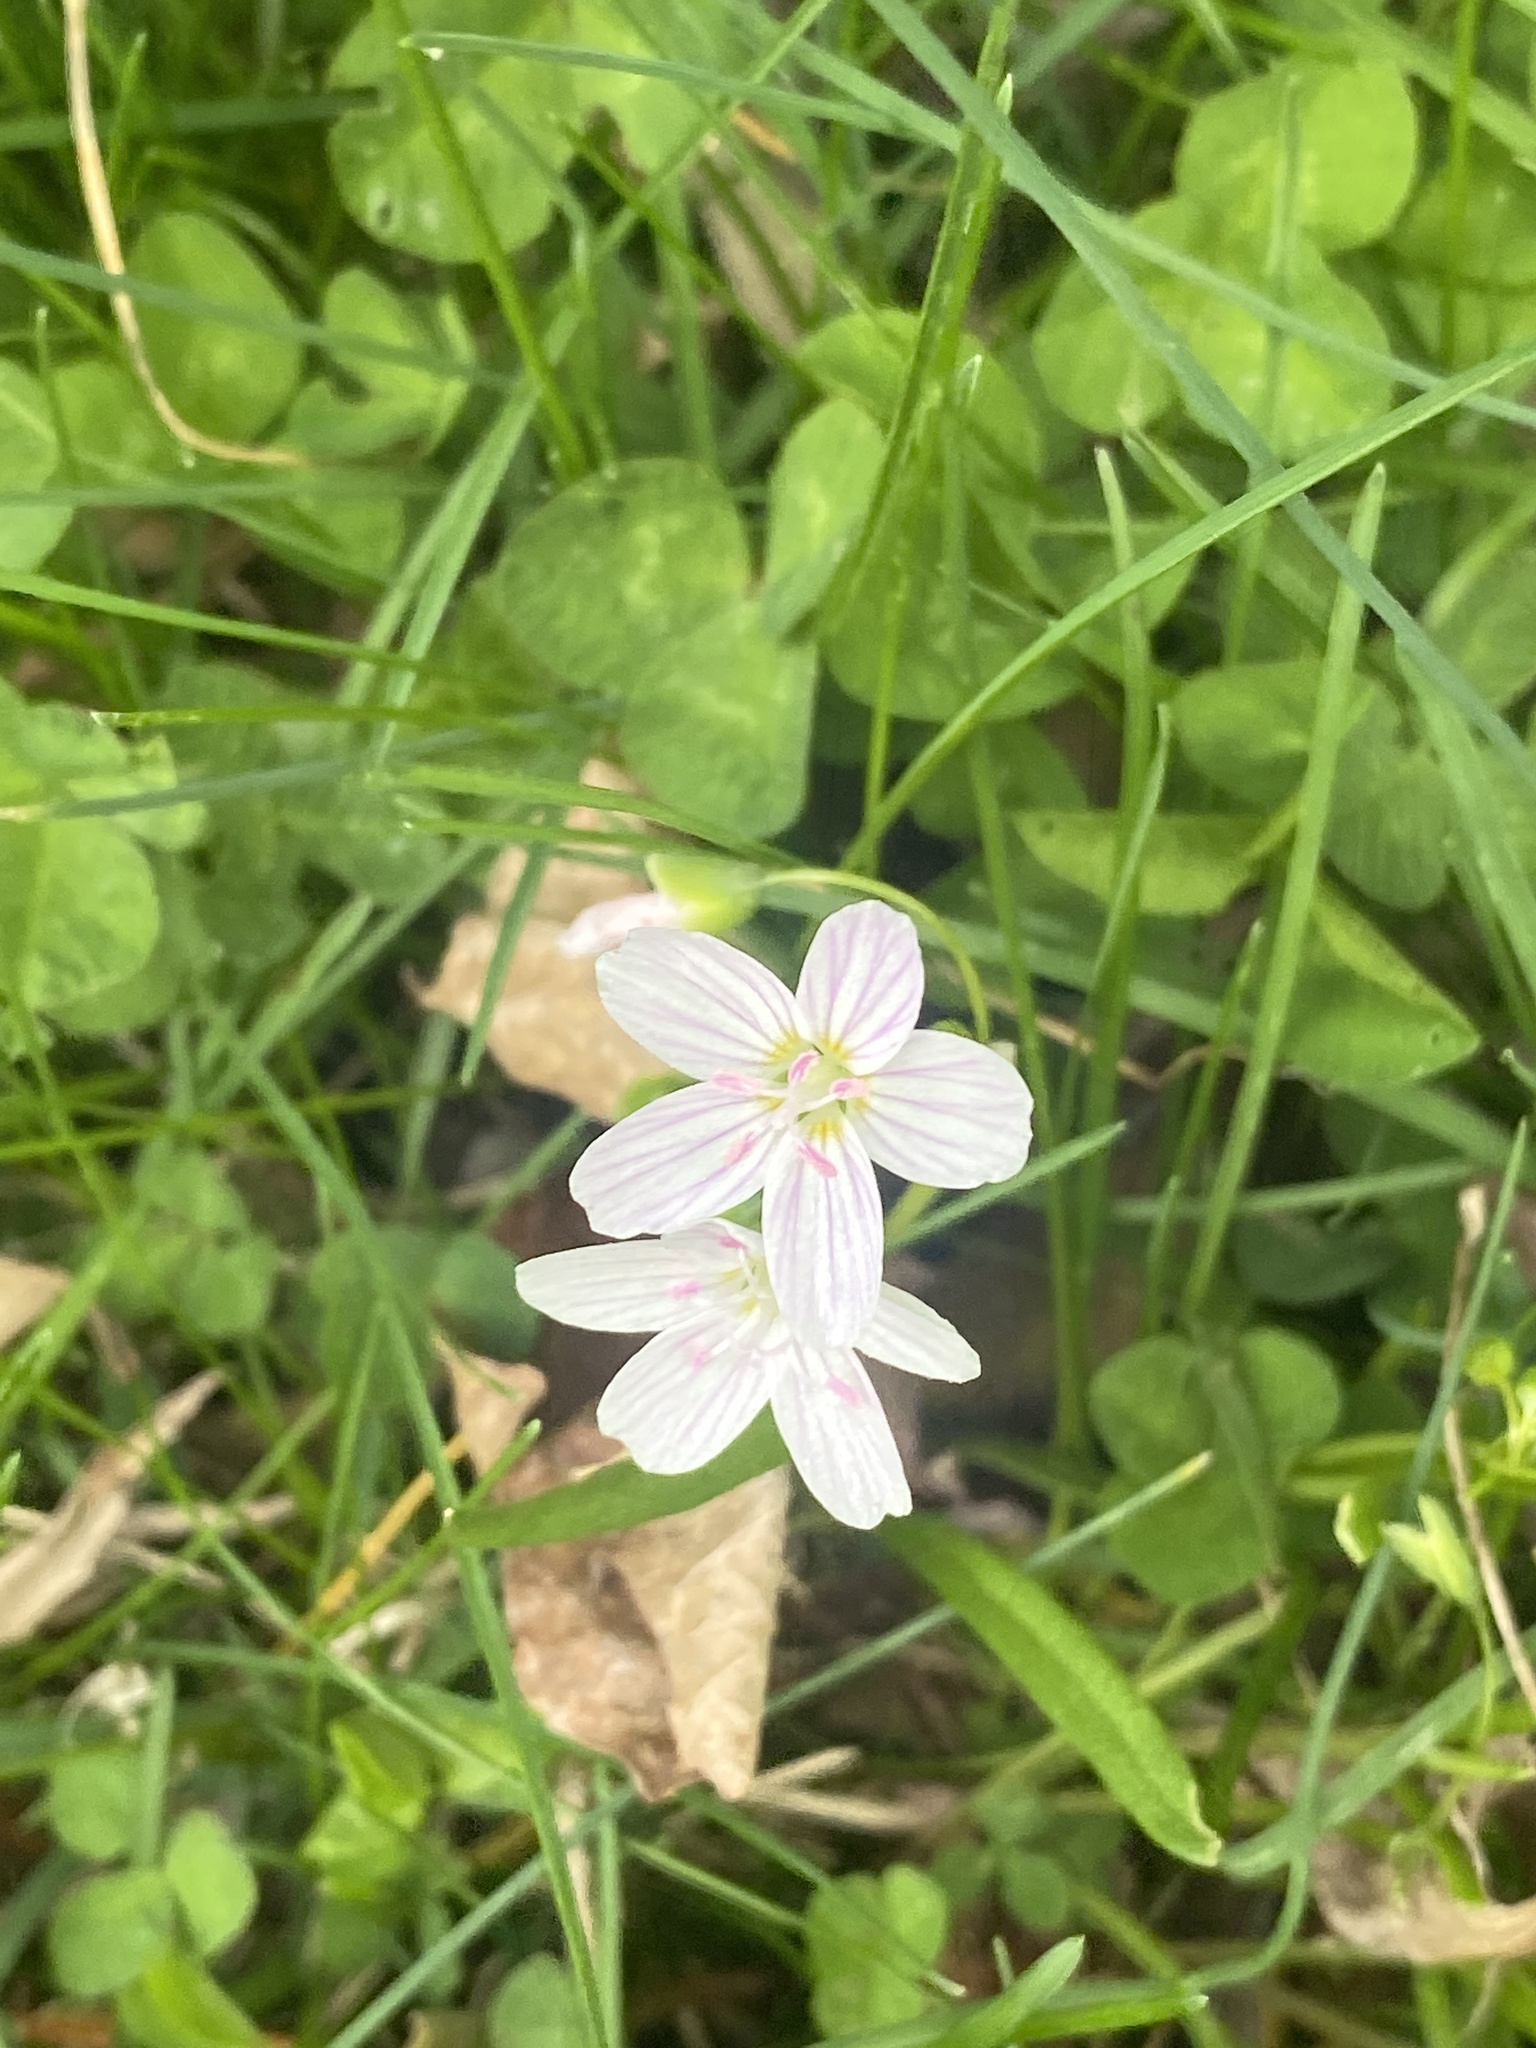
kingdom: Plantae
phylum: Tracheophyta
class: Magnoliopsida
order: Caryophyllales
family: Montiaceae
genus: Claytonia
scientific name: Claytonia virginica
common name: Virginia springbeauty
